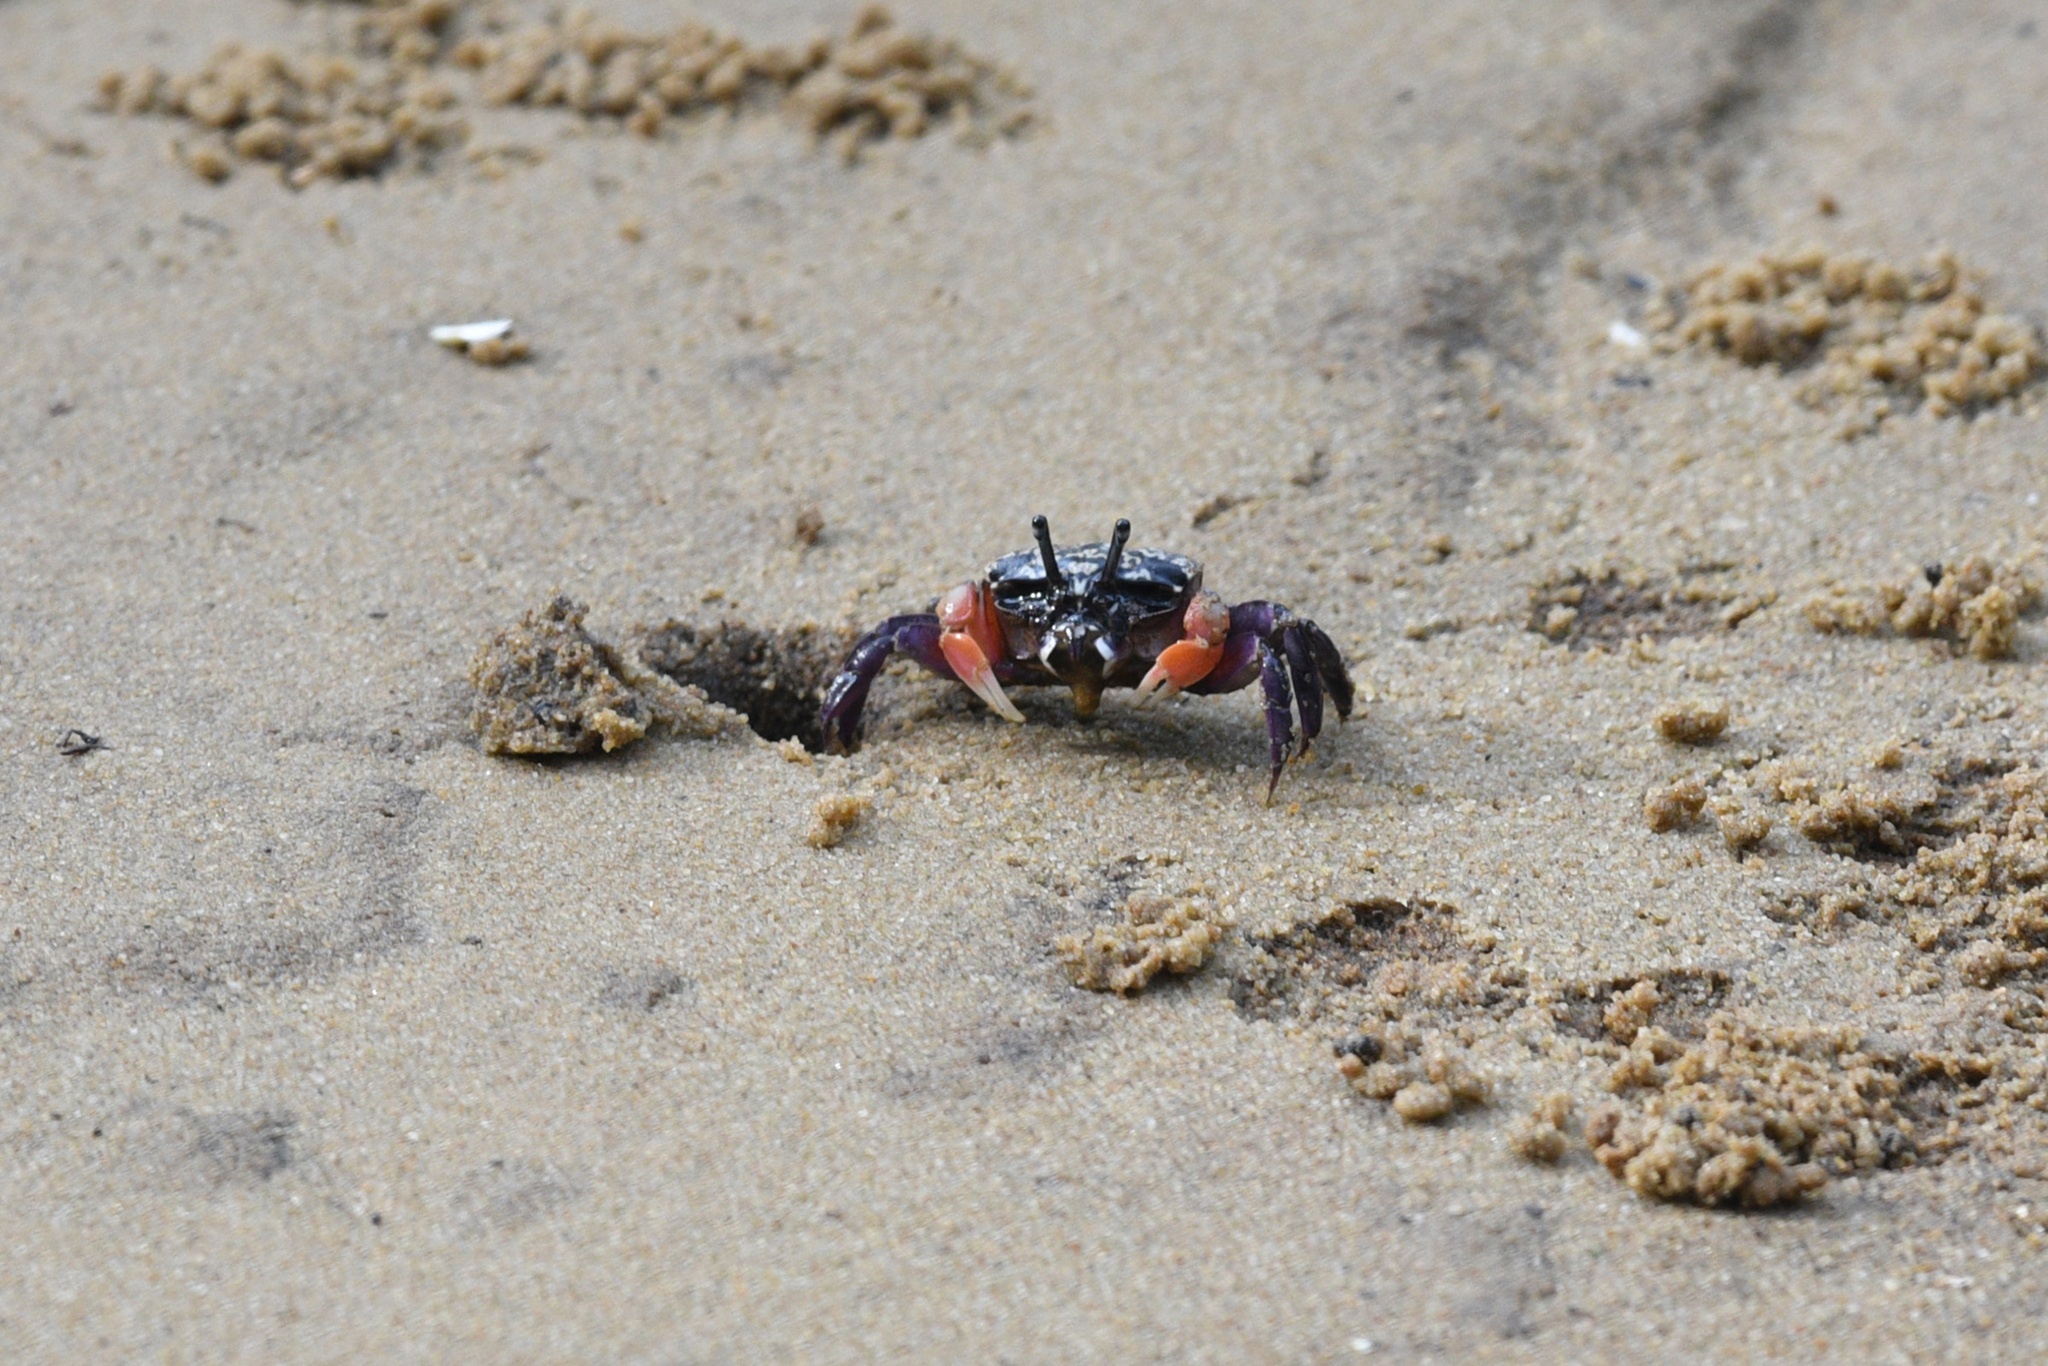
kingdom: Animalia
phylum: Arthropoda
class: Malacostraca
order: Decapoda
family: Heloeciidae
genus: Heloecius
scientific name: Heloecius cordiformis
